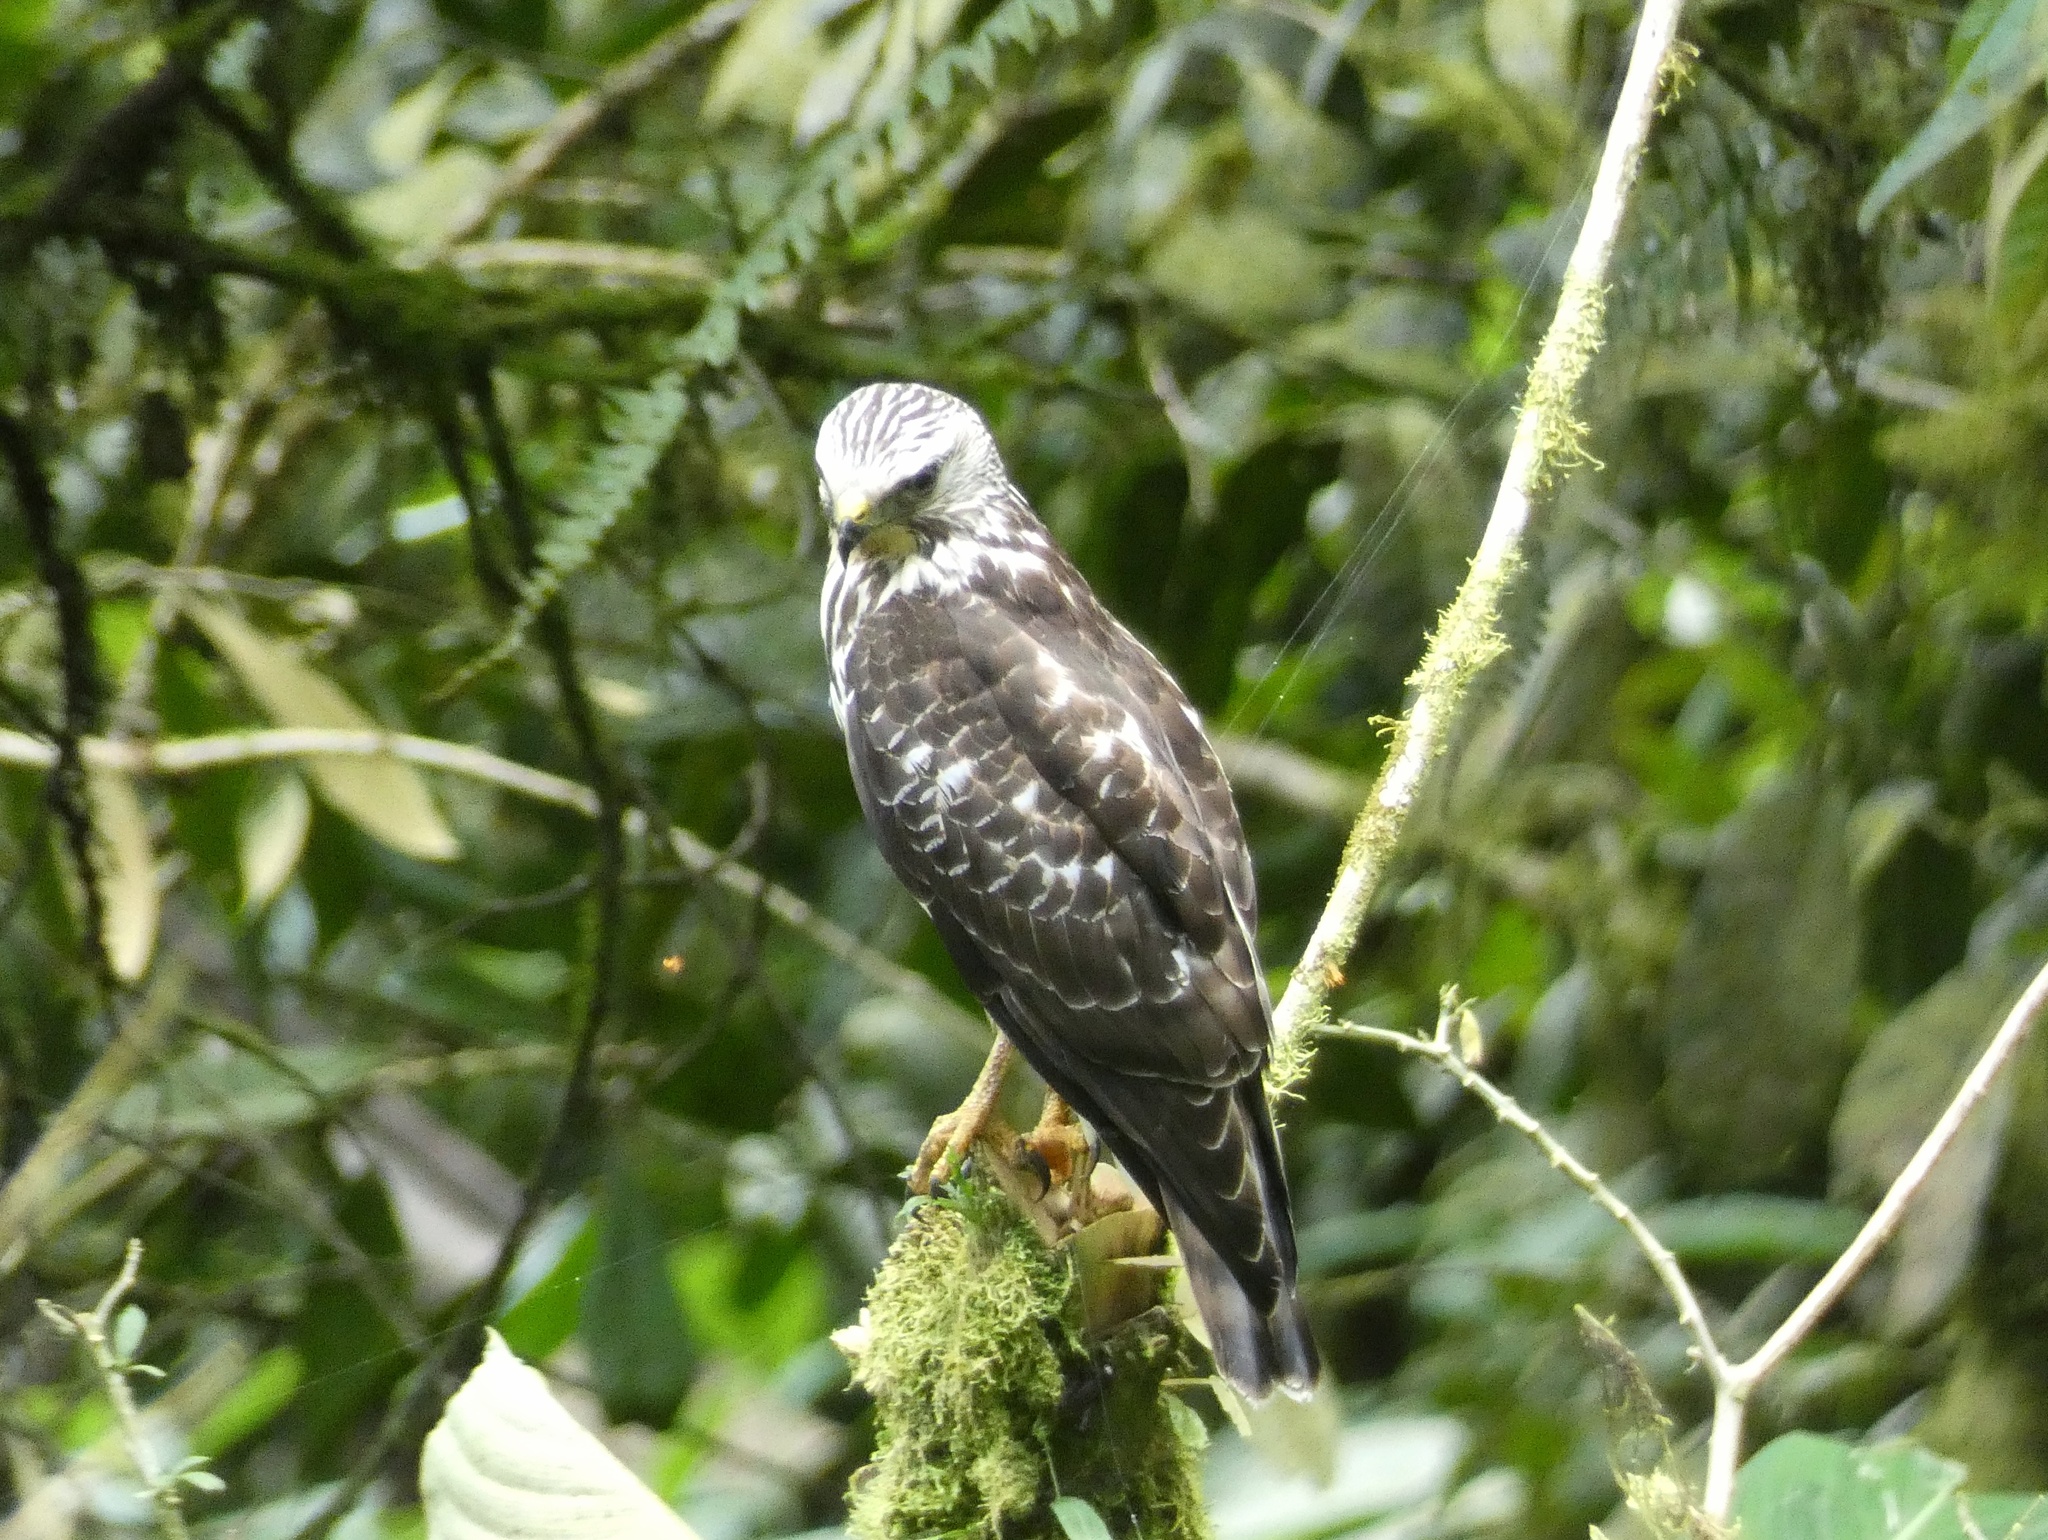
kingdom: Animalia
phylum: Chordata
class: Aves
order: Accipitriformes
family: Accipitridae
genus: Buteo
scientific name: Buteo platypterus
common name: Broad-winged hawk
